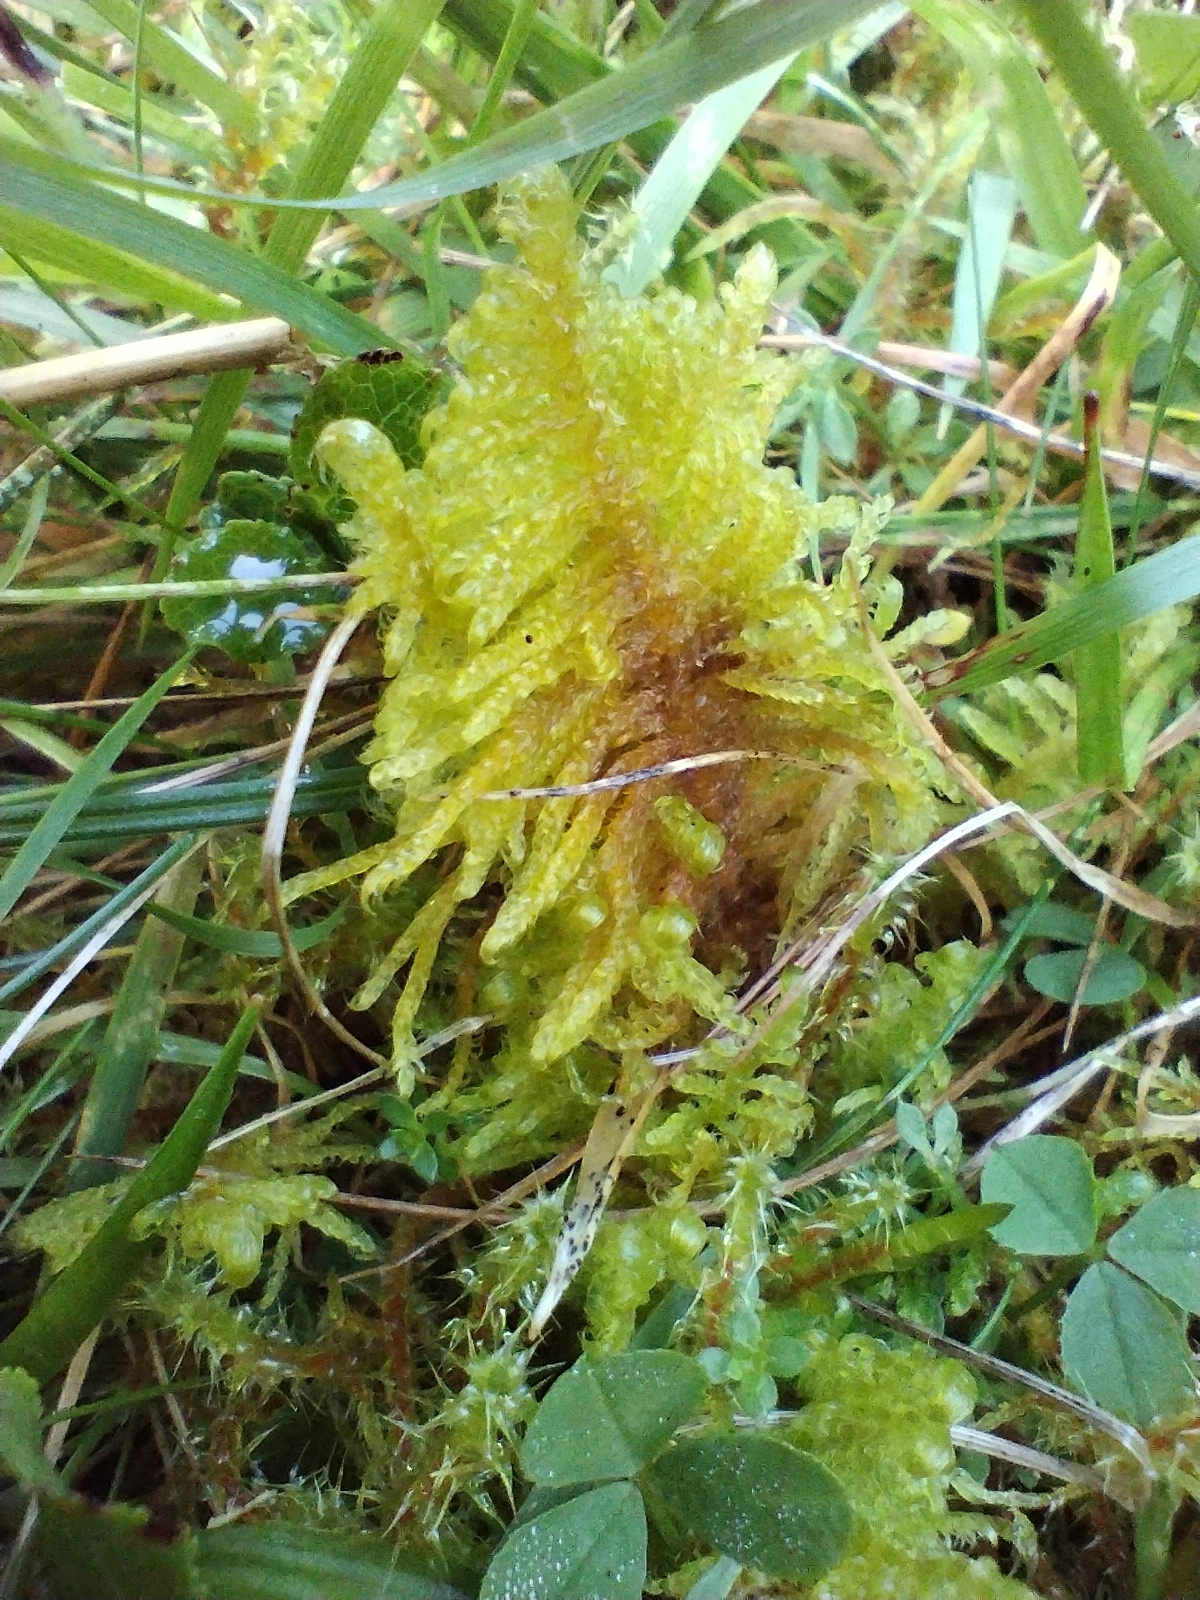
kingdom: Plantae
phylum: Bryophyta
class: Bryopsida
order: Hypnales
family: Pylaisiaceae
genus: Ptilium
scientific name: Ptilium crista-castrensis
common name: Knight's plume moss
